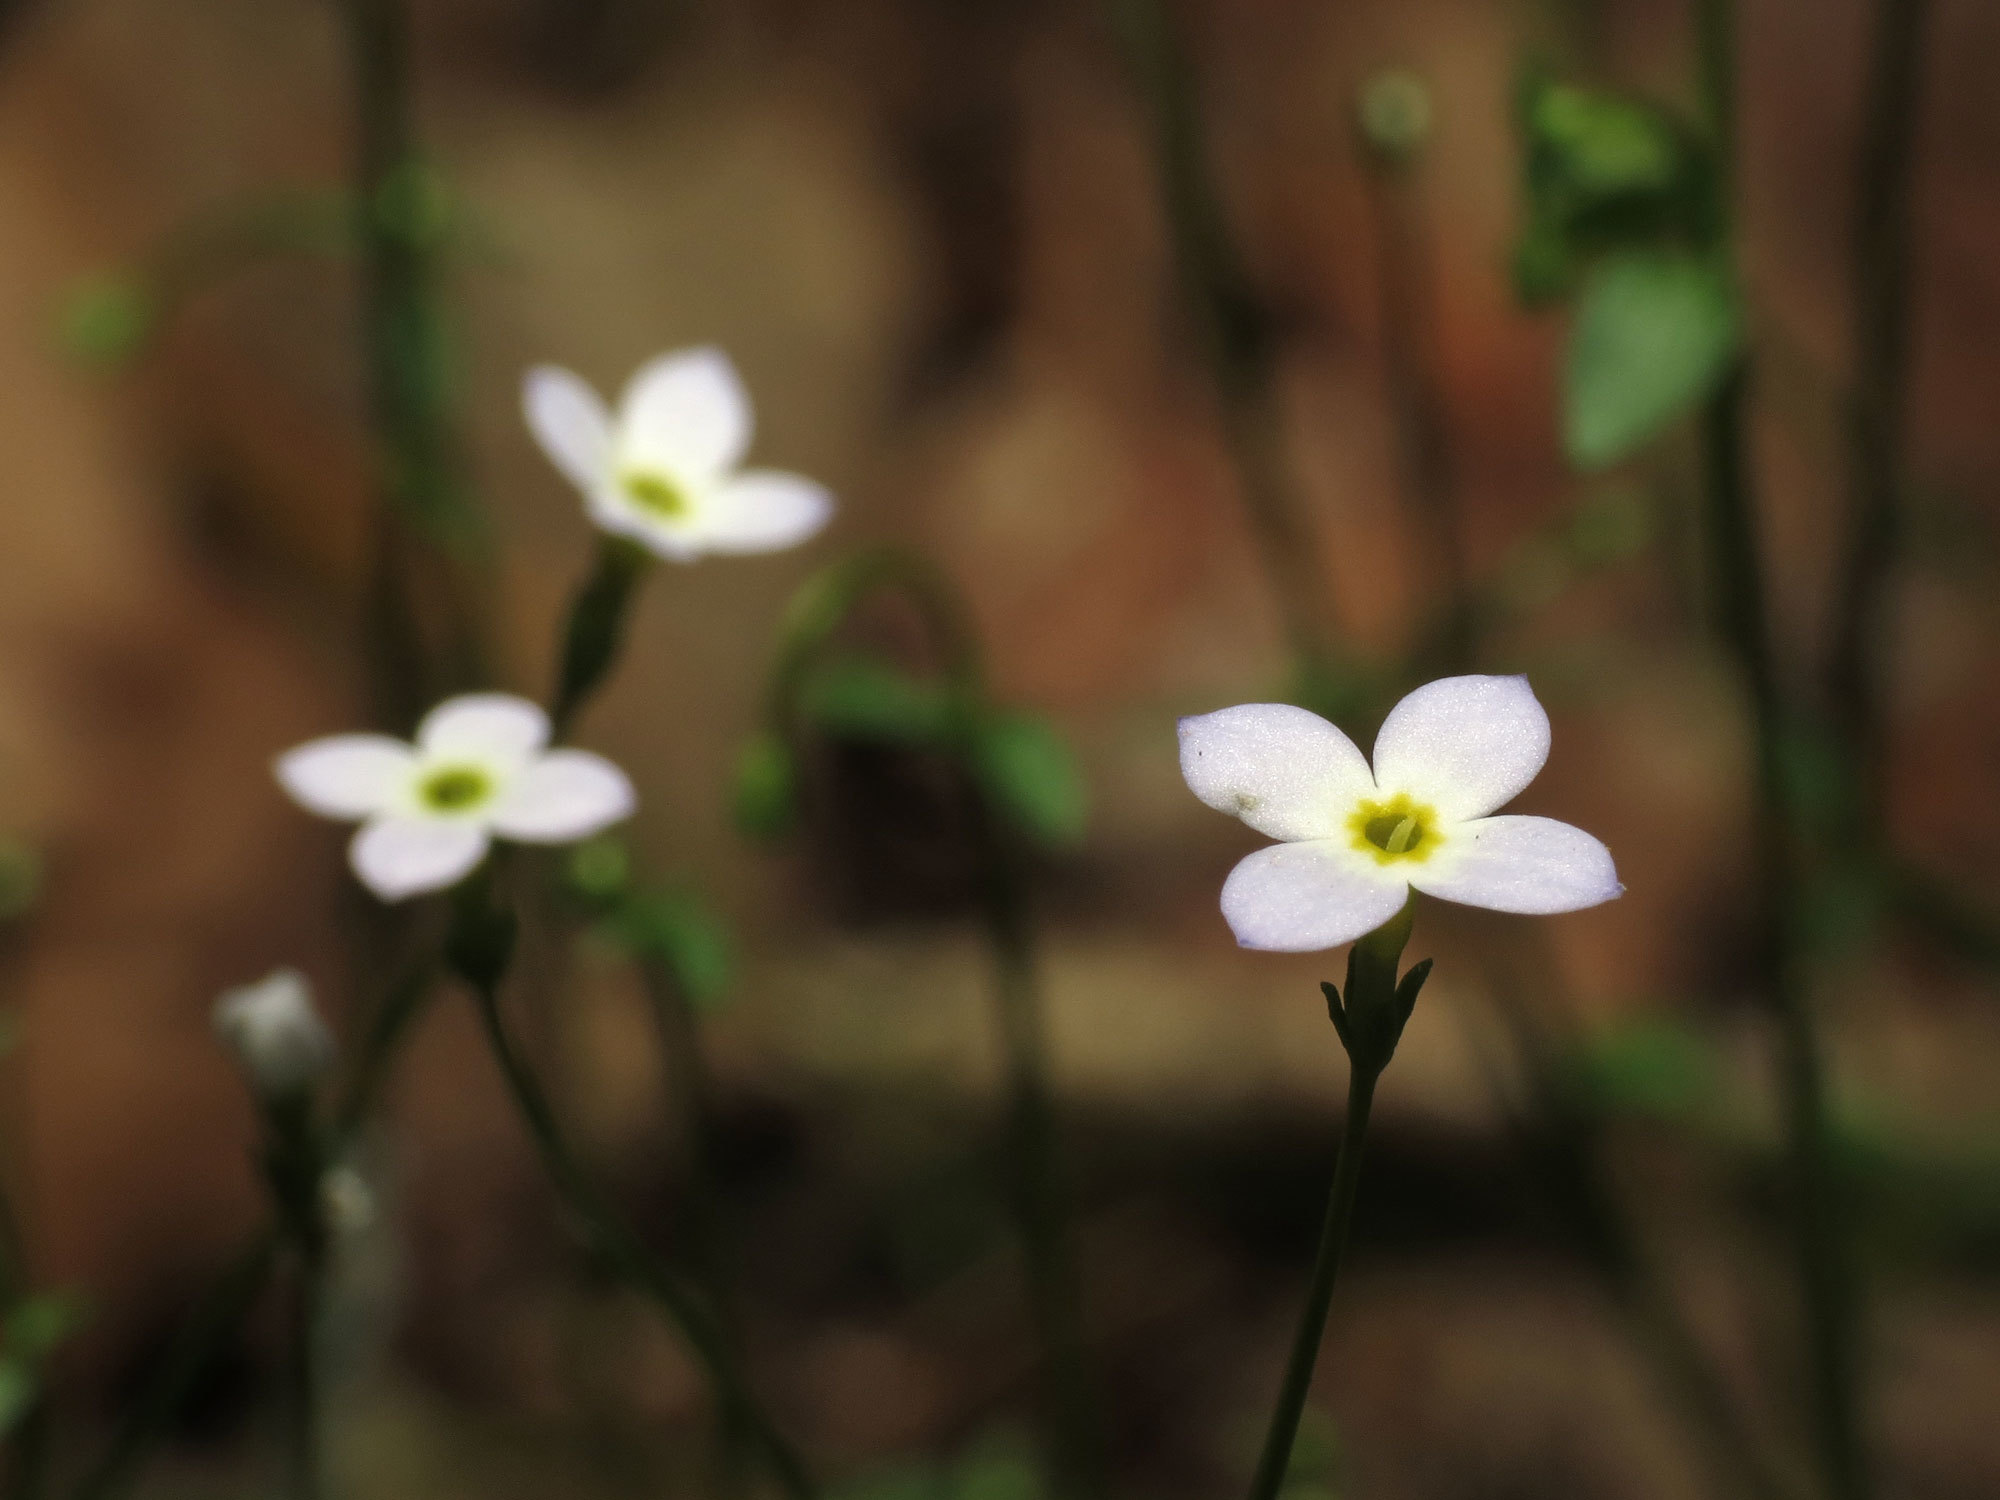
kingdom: Plantae
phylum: Tracheophyta
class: Magnoliopsida
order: Gentianales
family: Rubiaceae
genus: Houstonia
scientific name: Houstonia caerulea
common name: Bluets
